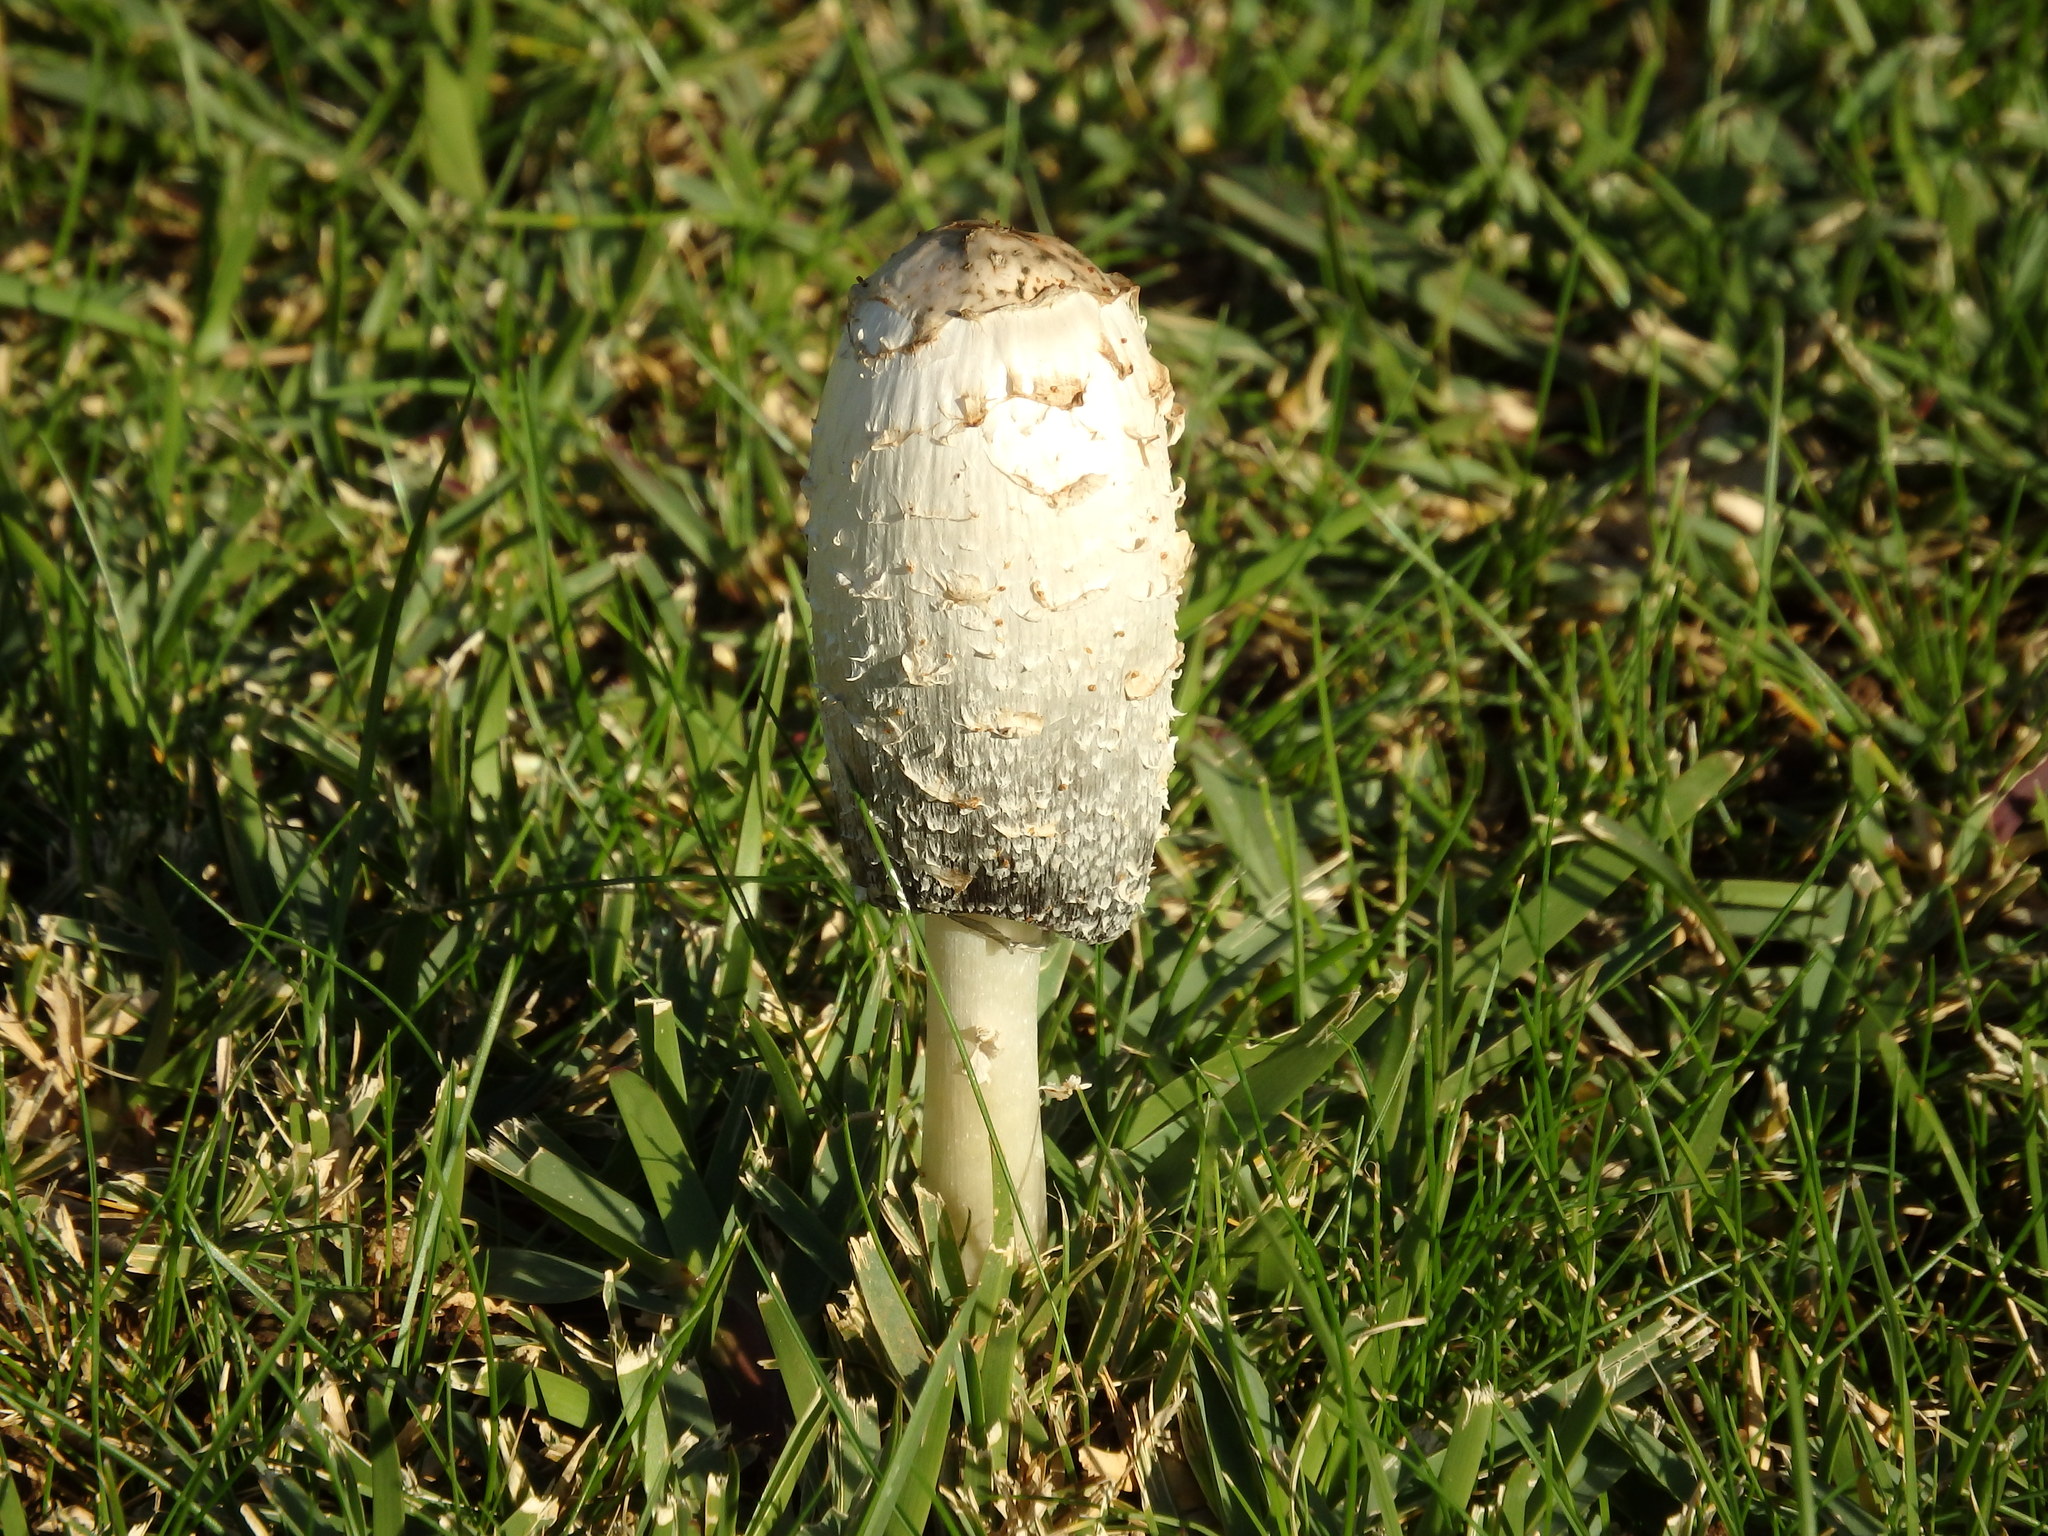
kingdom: Fungi
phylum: Basidiomycota
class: Agaricomycetes
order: Agaricales
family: Agaricaceae
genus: Coprinus
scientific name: Coprinus comatus
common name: Lawyer's wig
